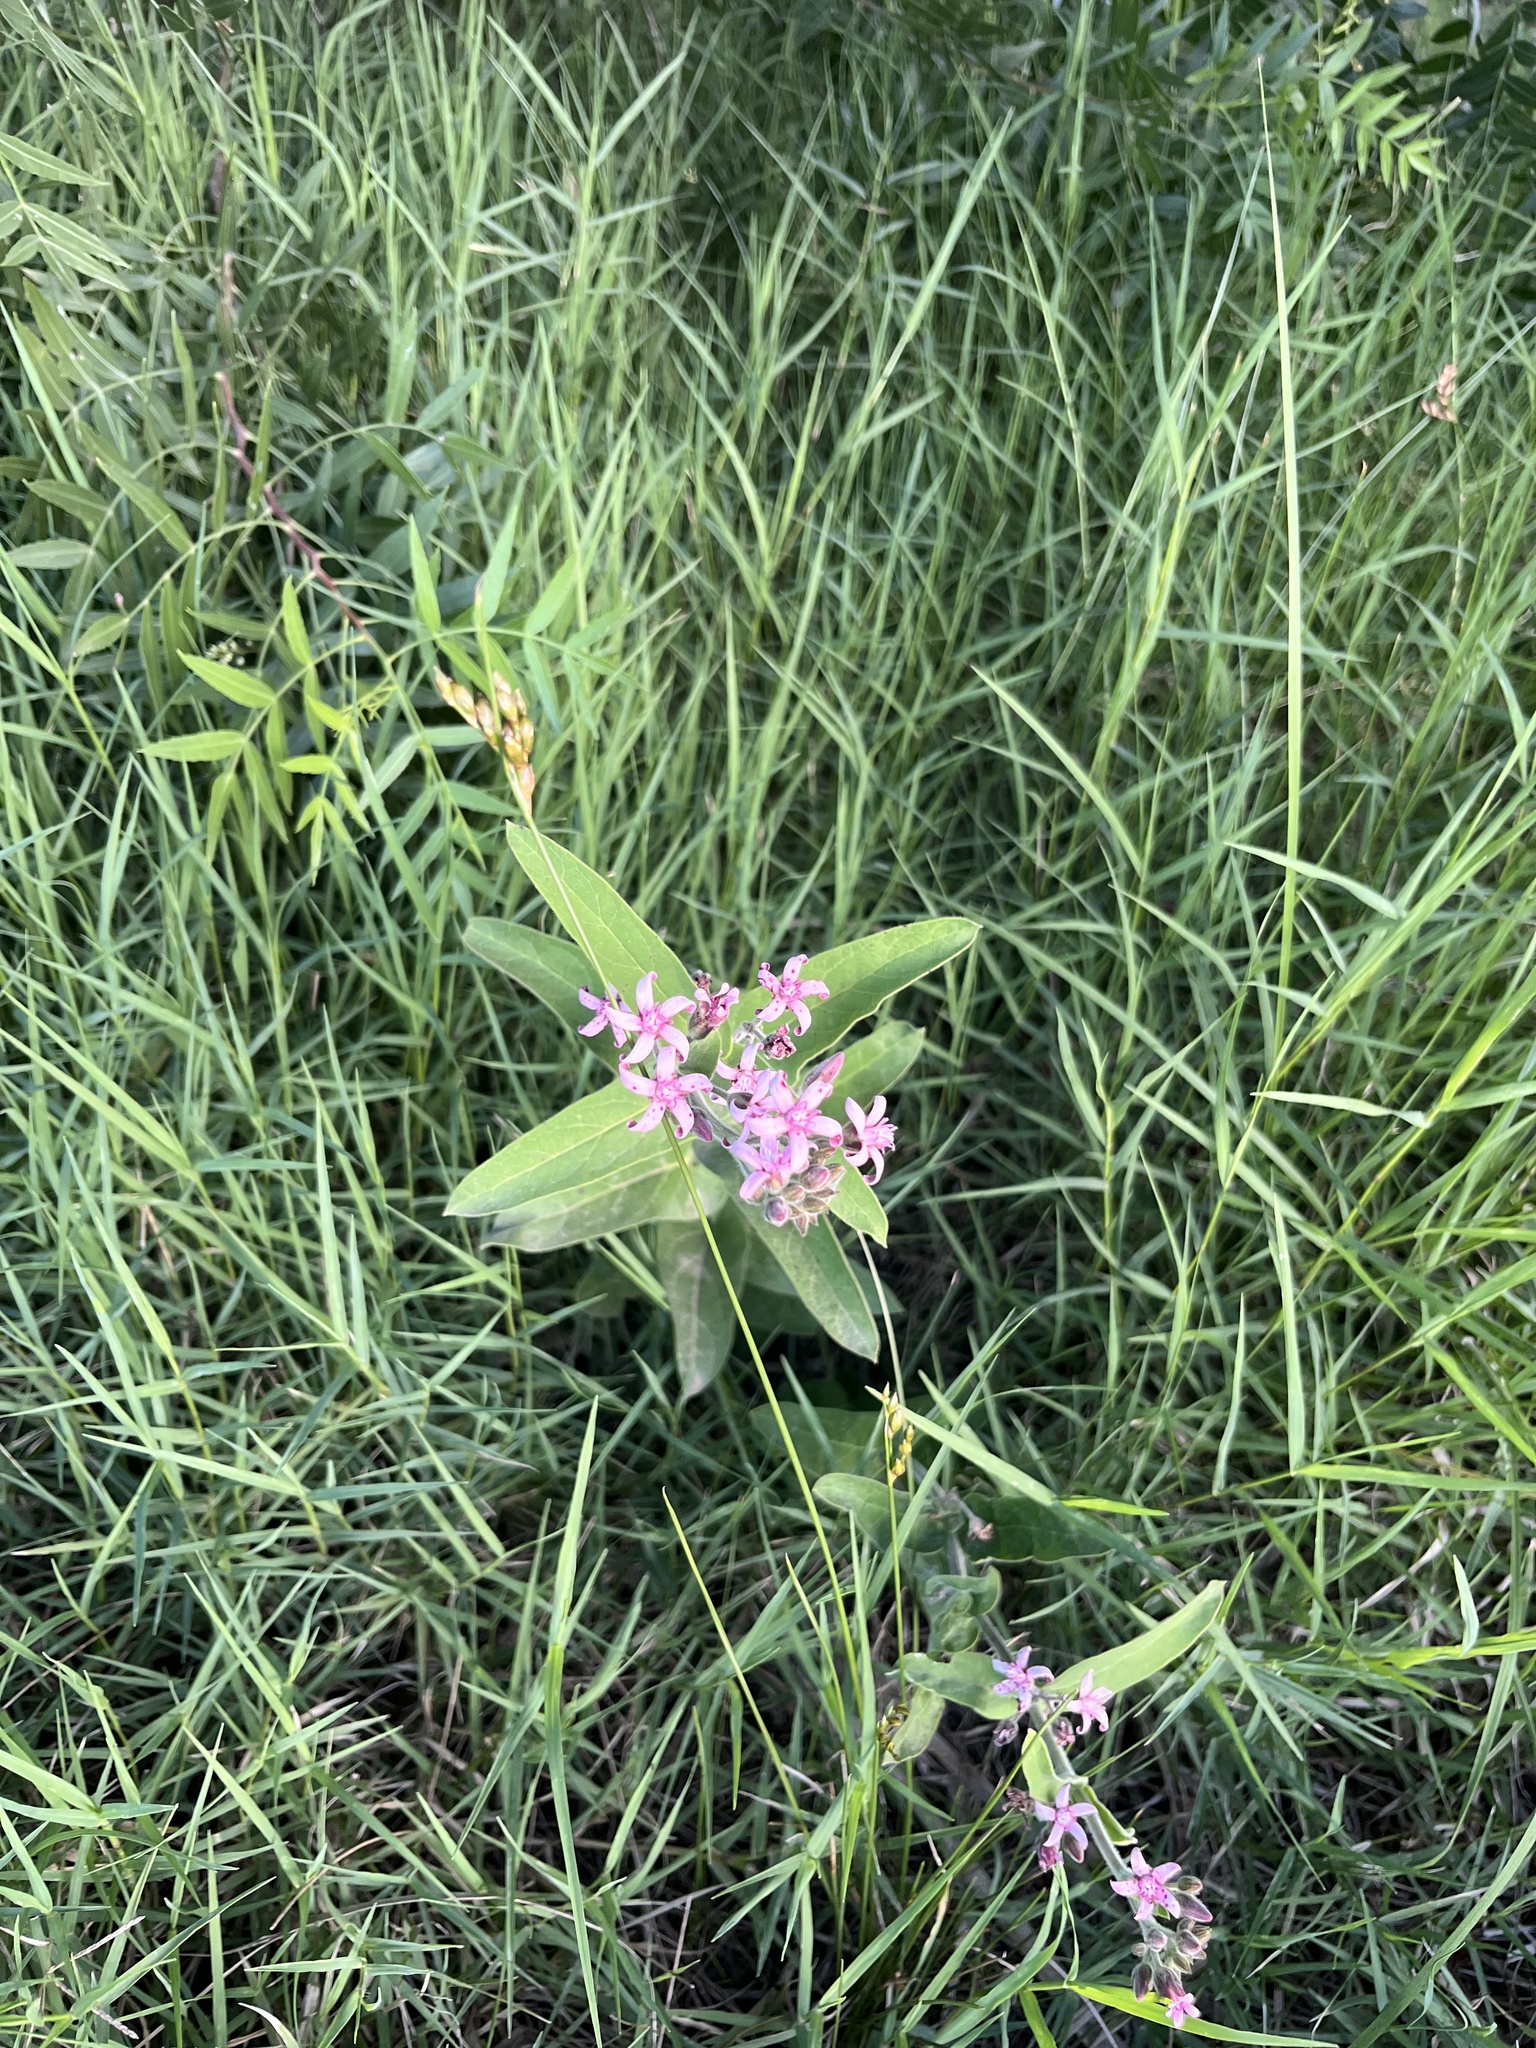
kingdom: Plantae
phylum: Tracheophyta
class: Magnoliopsida
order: Gentianales
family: Apocynaceae
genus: Oxypetalum
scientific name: Oxypetalum solanoides
